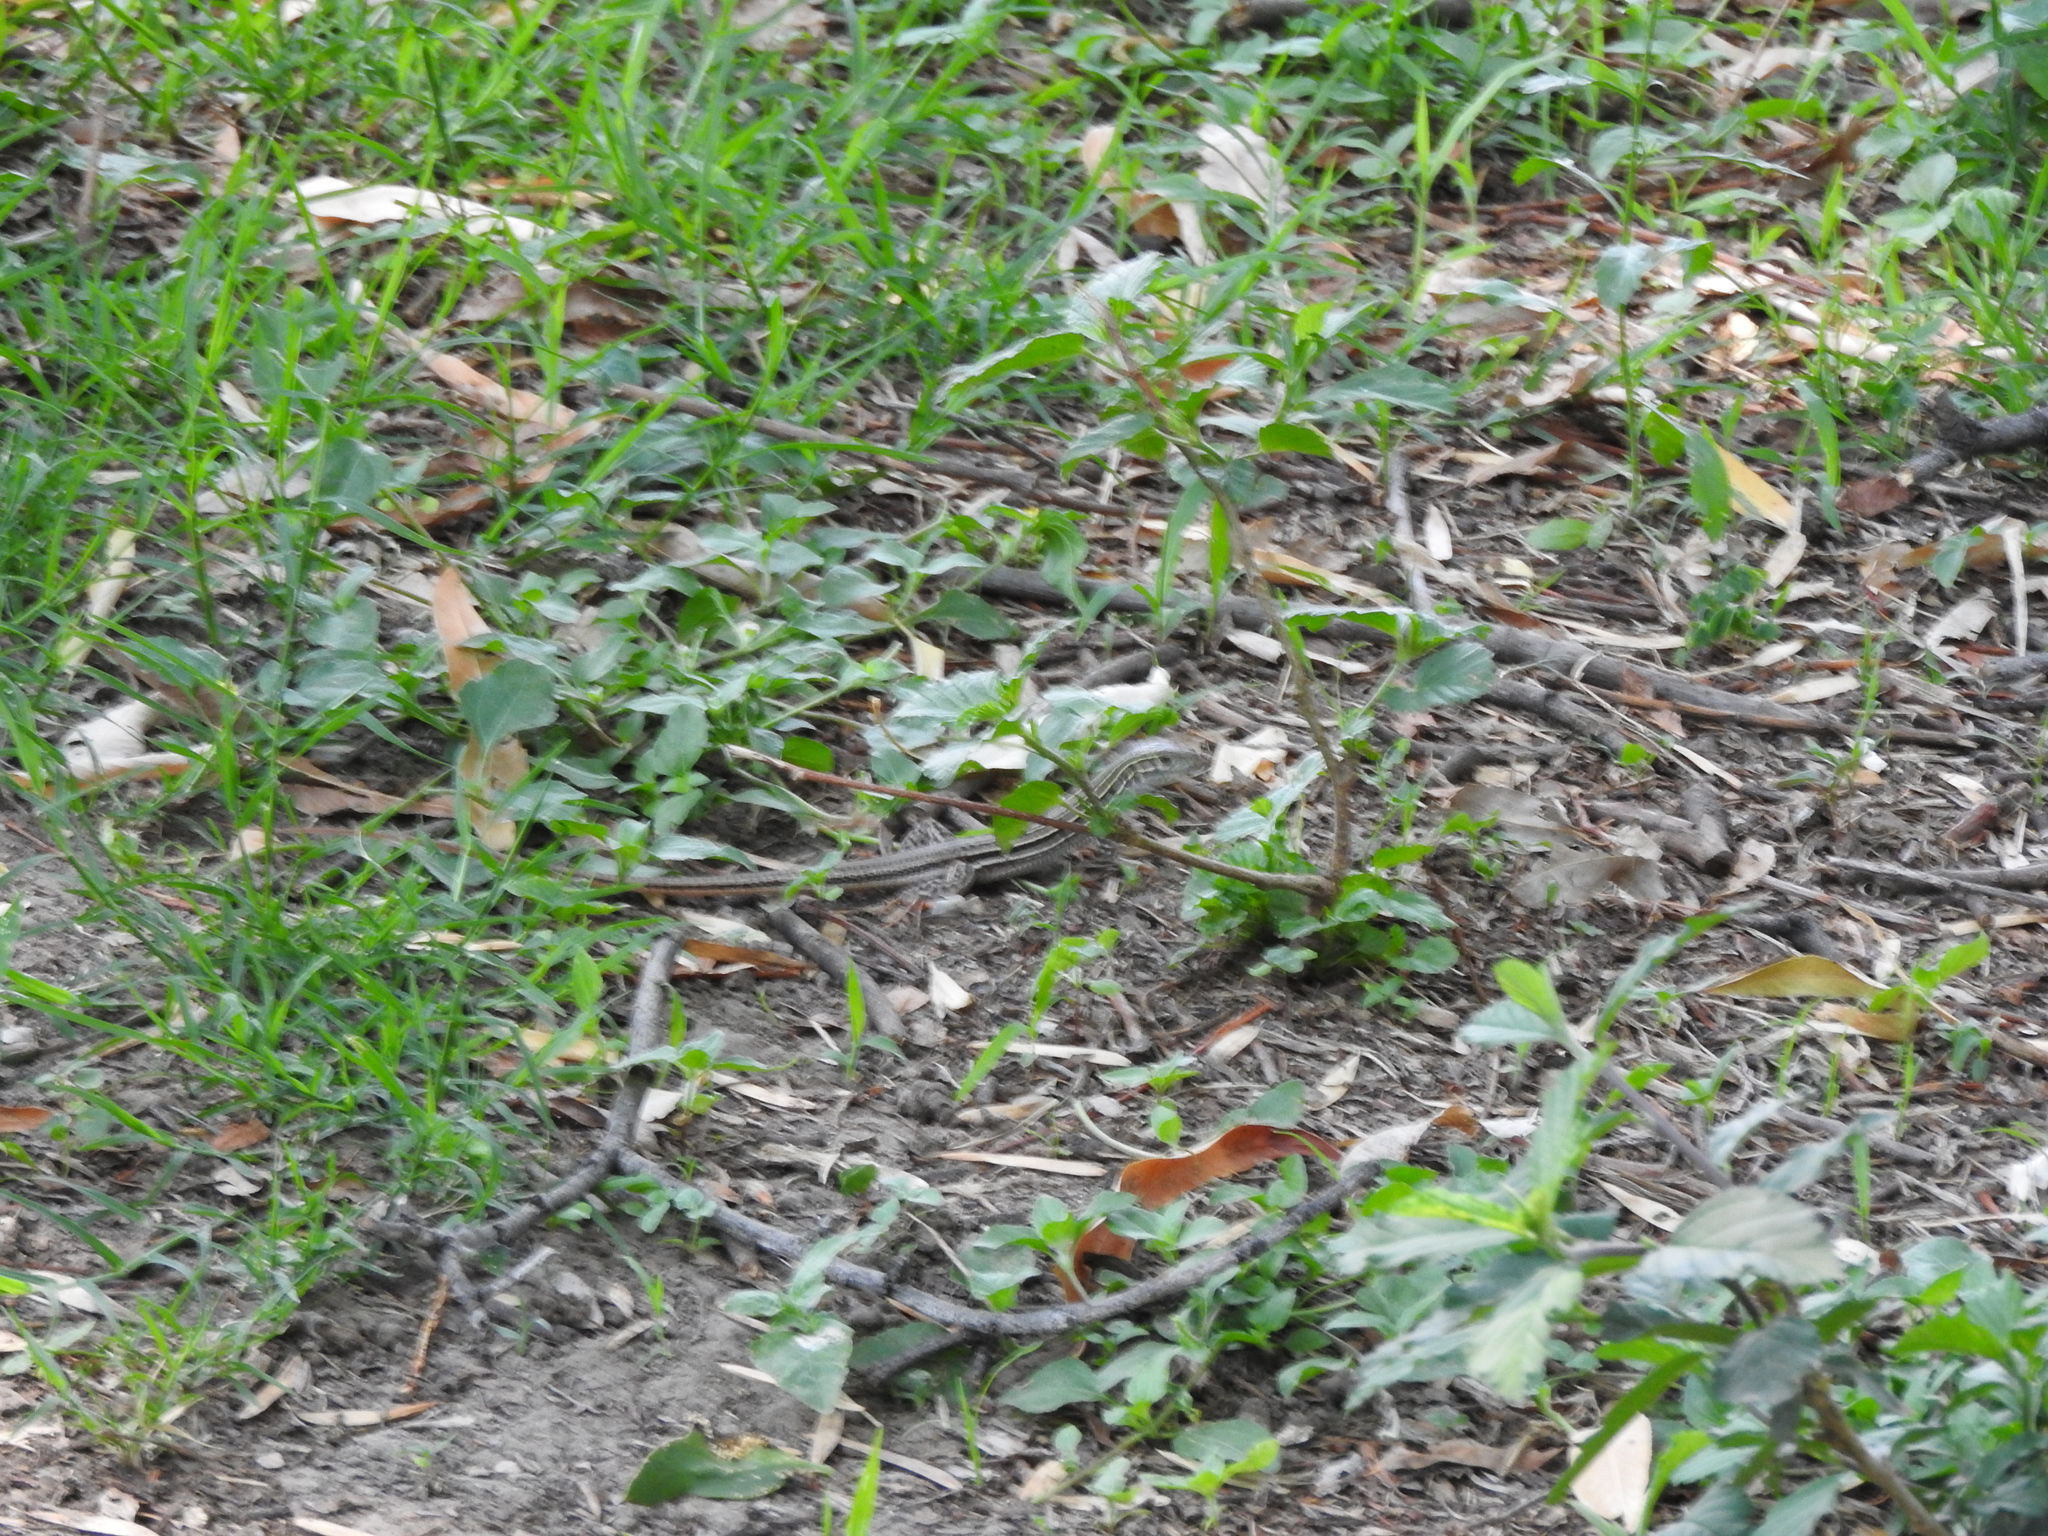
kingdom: Animalia
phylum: Chordata
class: Squamata
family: Teiidae
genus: Aspidoscelis
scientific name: Aspidoscelis gularis
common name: Eastern spotted whiptail
